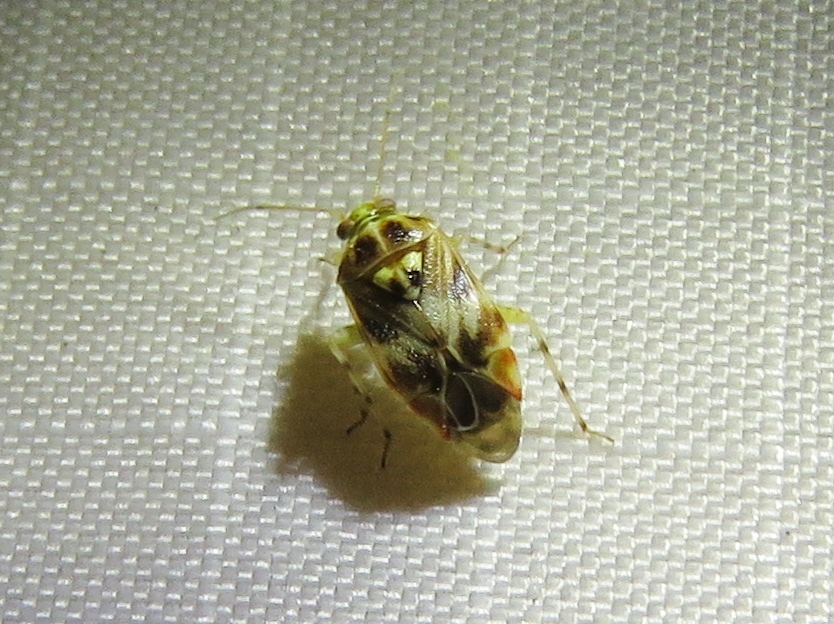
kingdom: Animalia
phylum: Arthropoda
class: Insecta
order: Hemiptera
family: Miridae
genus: Tropidosteptes
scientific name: Tropidosteptes quercicola
